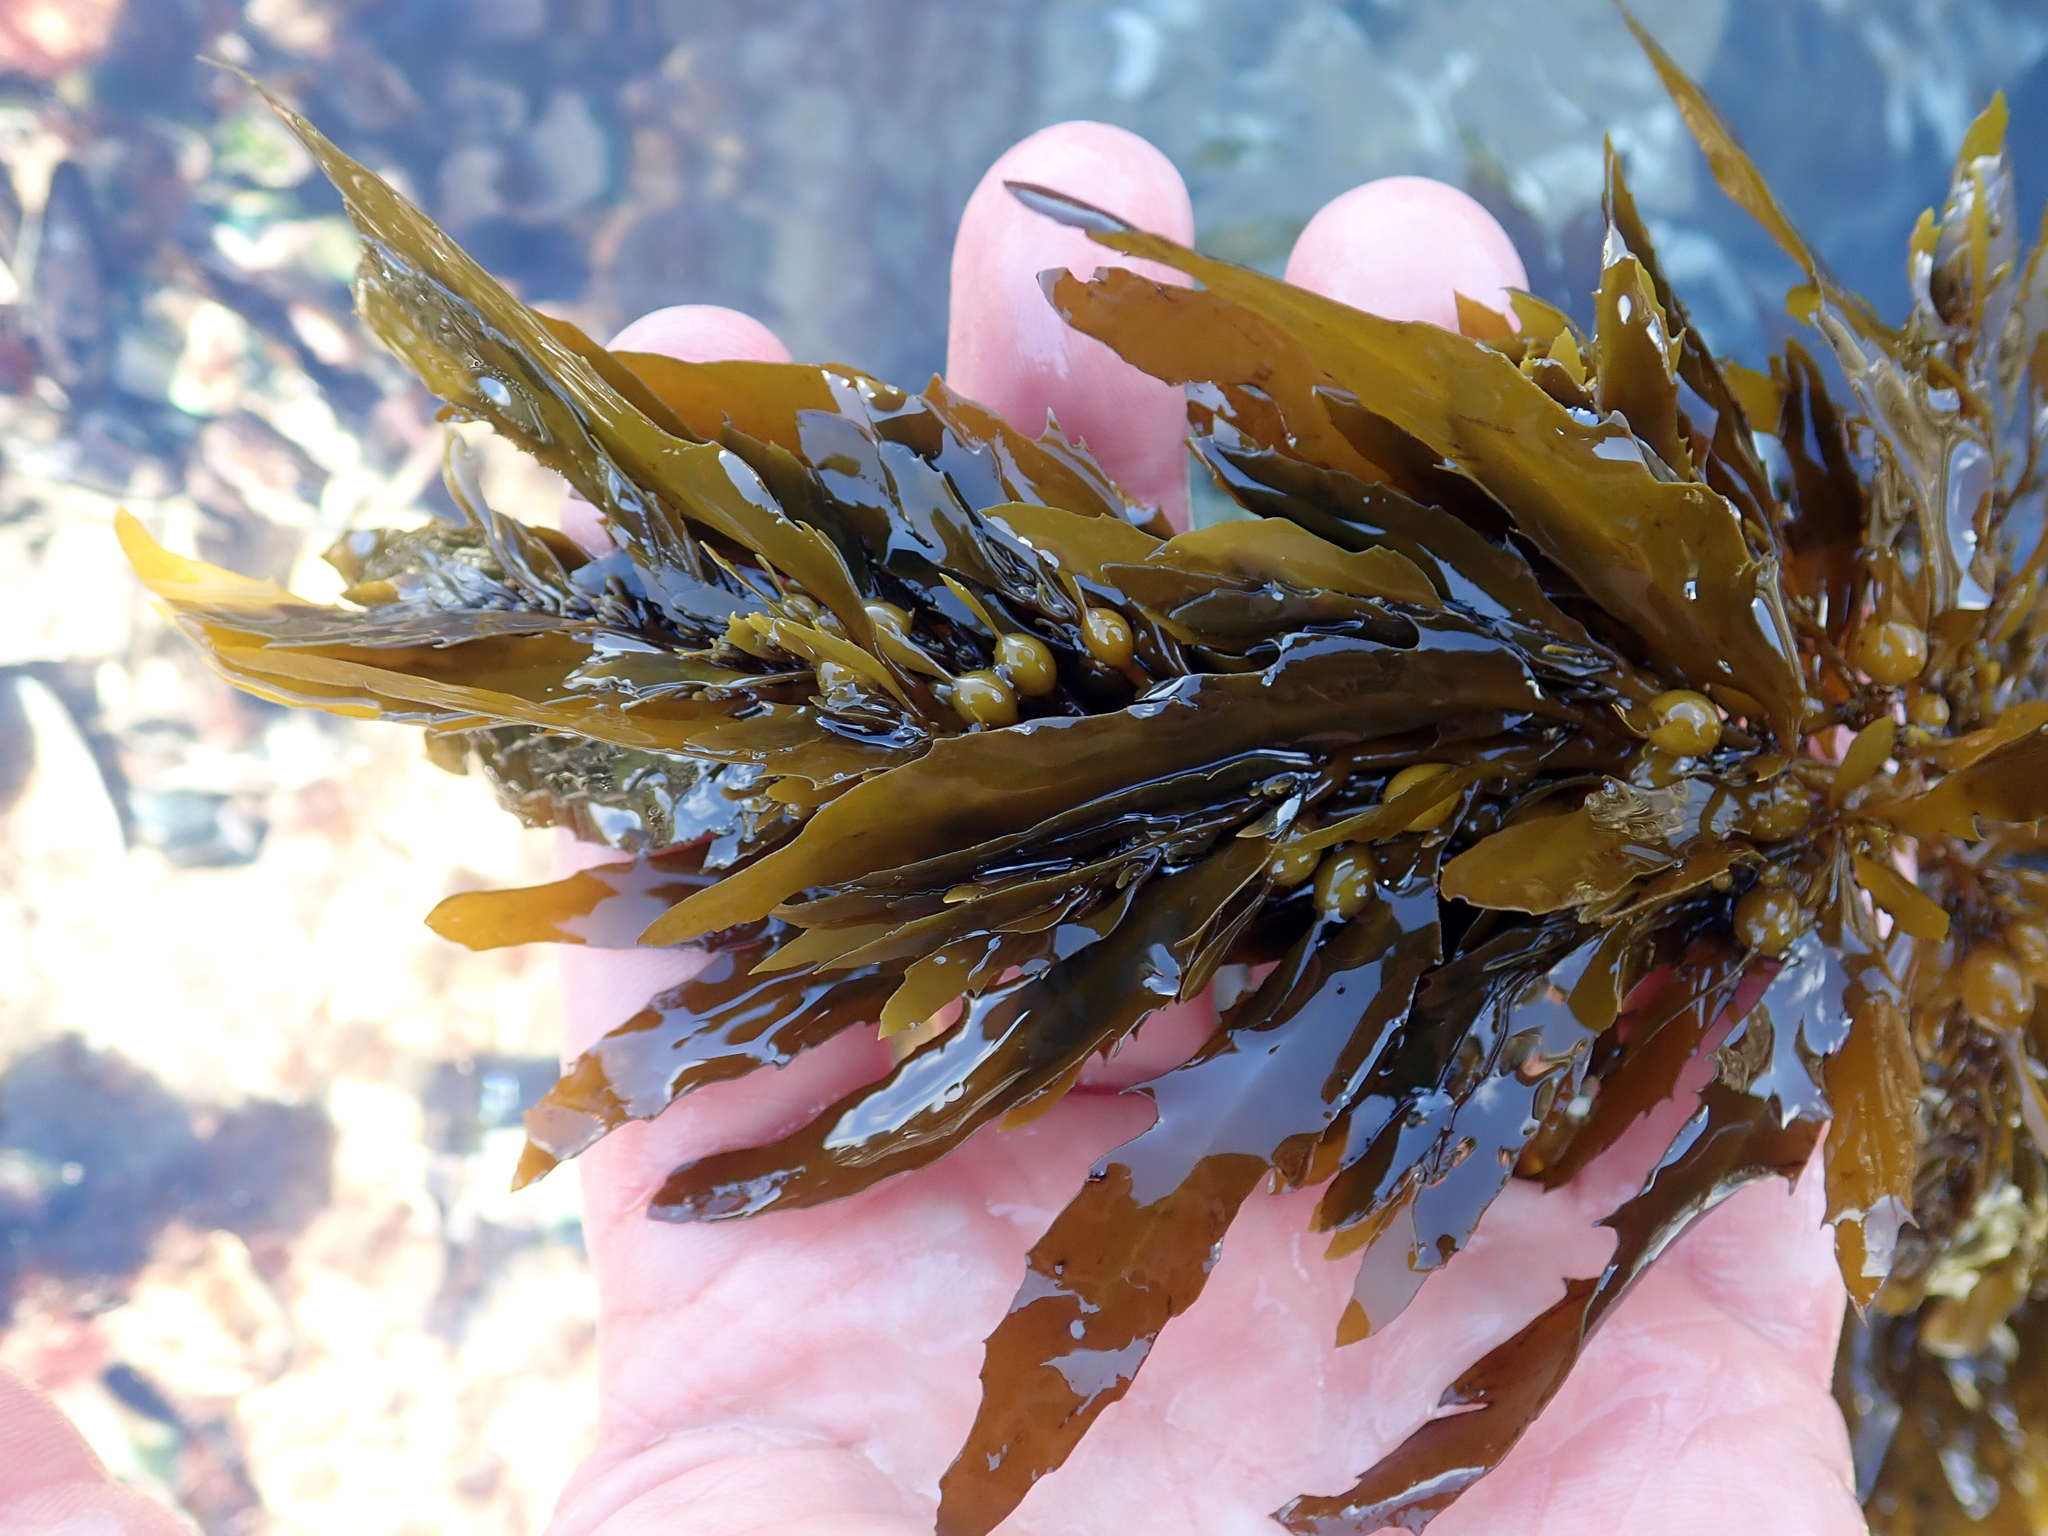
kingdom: Chromista
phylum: Ochrophyta
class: Phaeophyceae
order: Fucales
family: Sargassaceae
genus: Sargassum
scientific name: Sargassum sinclairii
